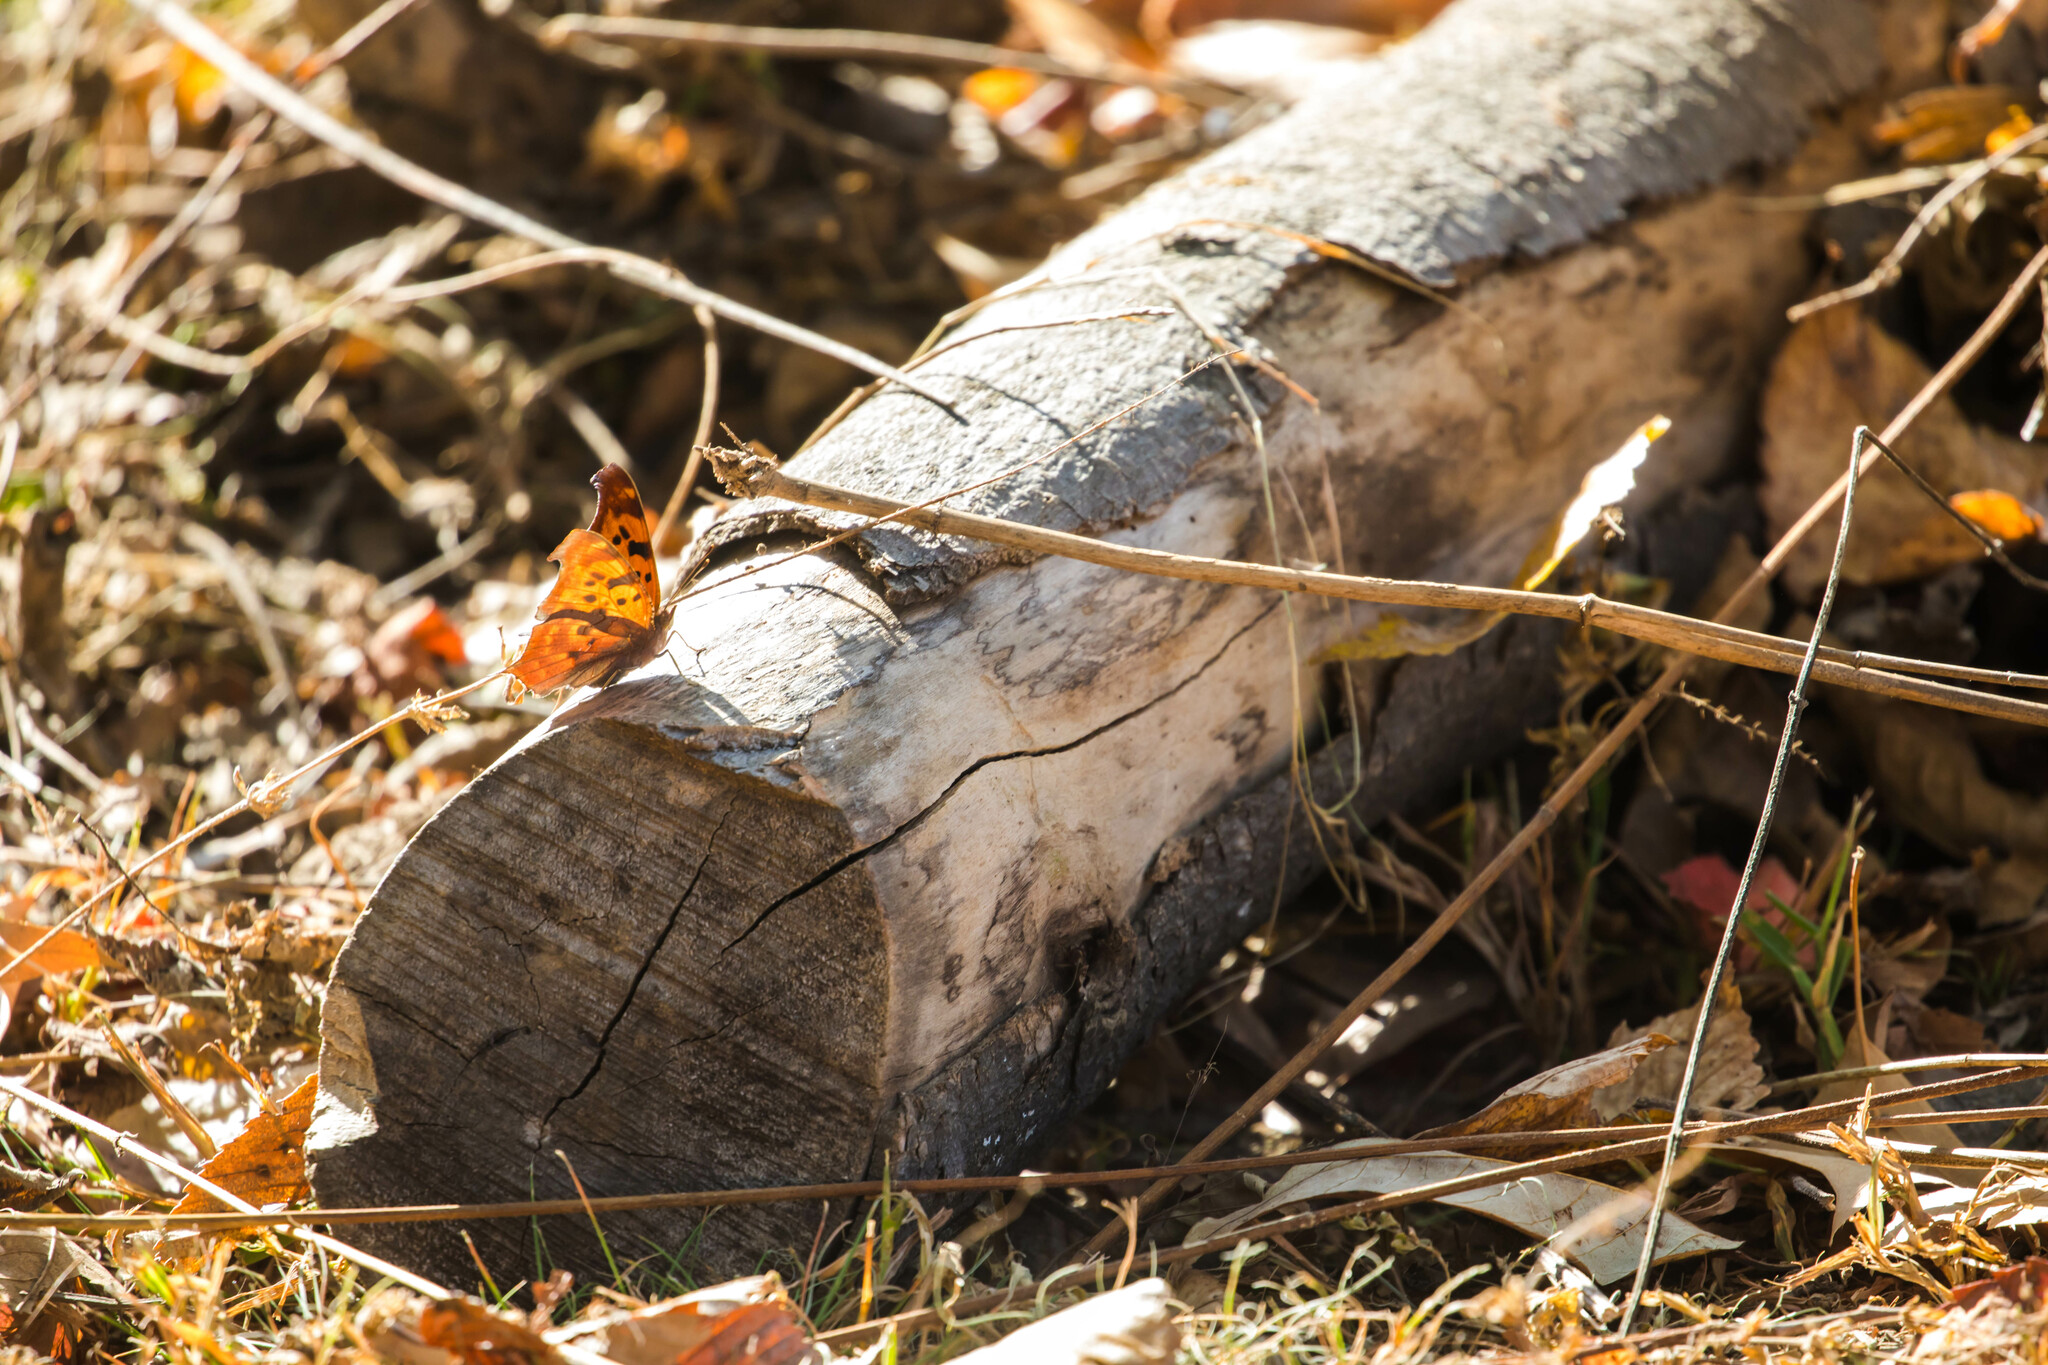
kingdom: Animalia
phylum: Arthropoda
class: Insecta
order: Lepidoptera
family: Nymphalidae
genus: Polygonia
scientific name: Polygonia interrogationis
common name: Question mark
